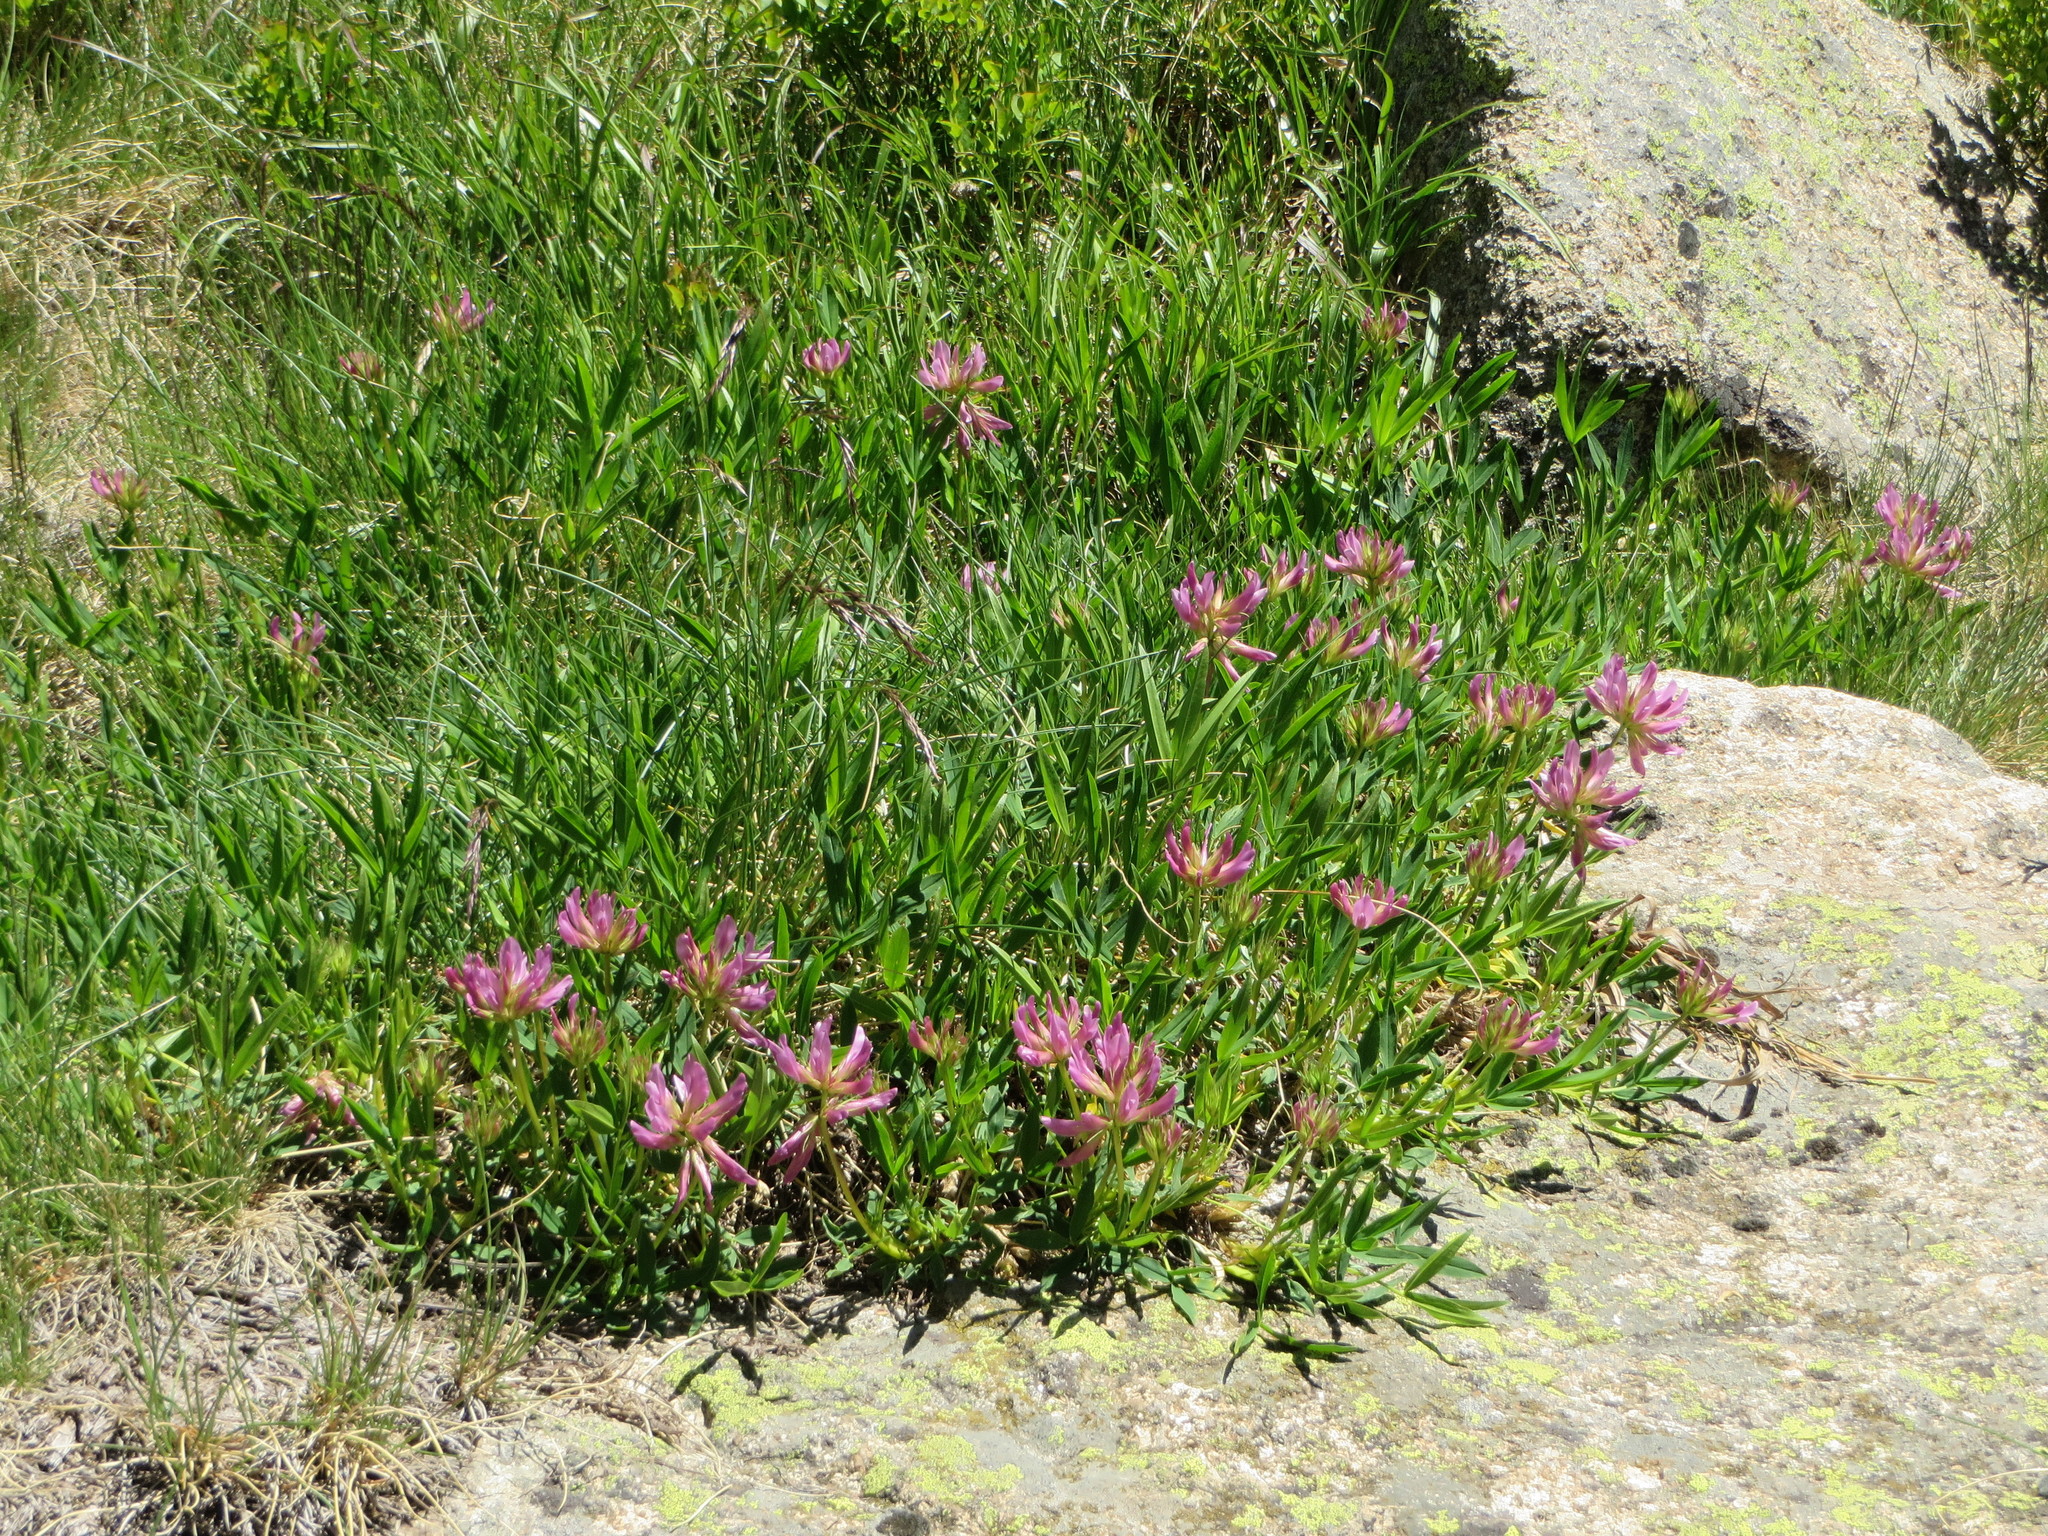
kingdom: Plantae
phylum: Tracheophyta
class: Magnoliopsida
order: Fabales
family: Fabaceae
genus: Trifolium
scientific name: Trifolium alpinum
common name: Alpine clover
